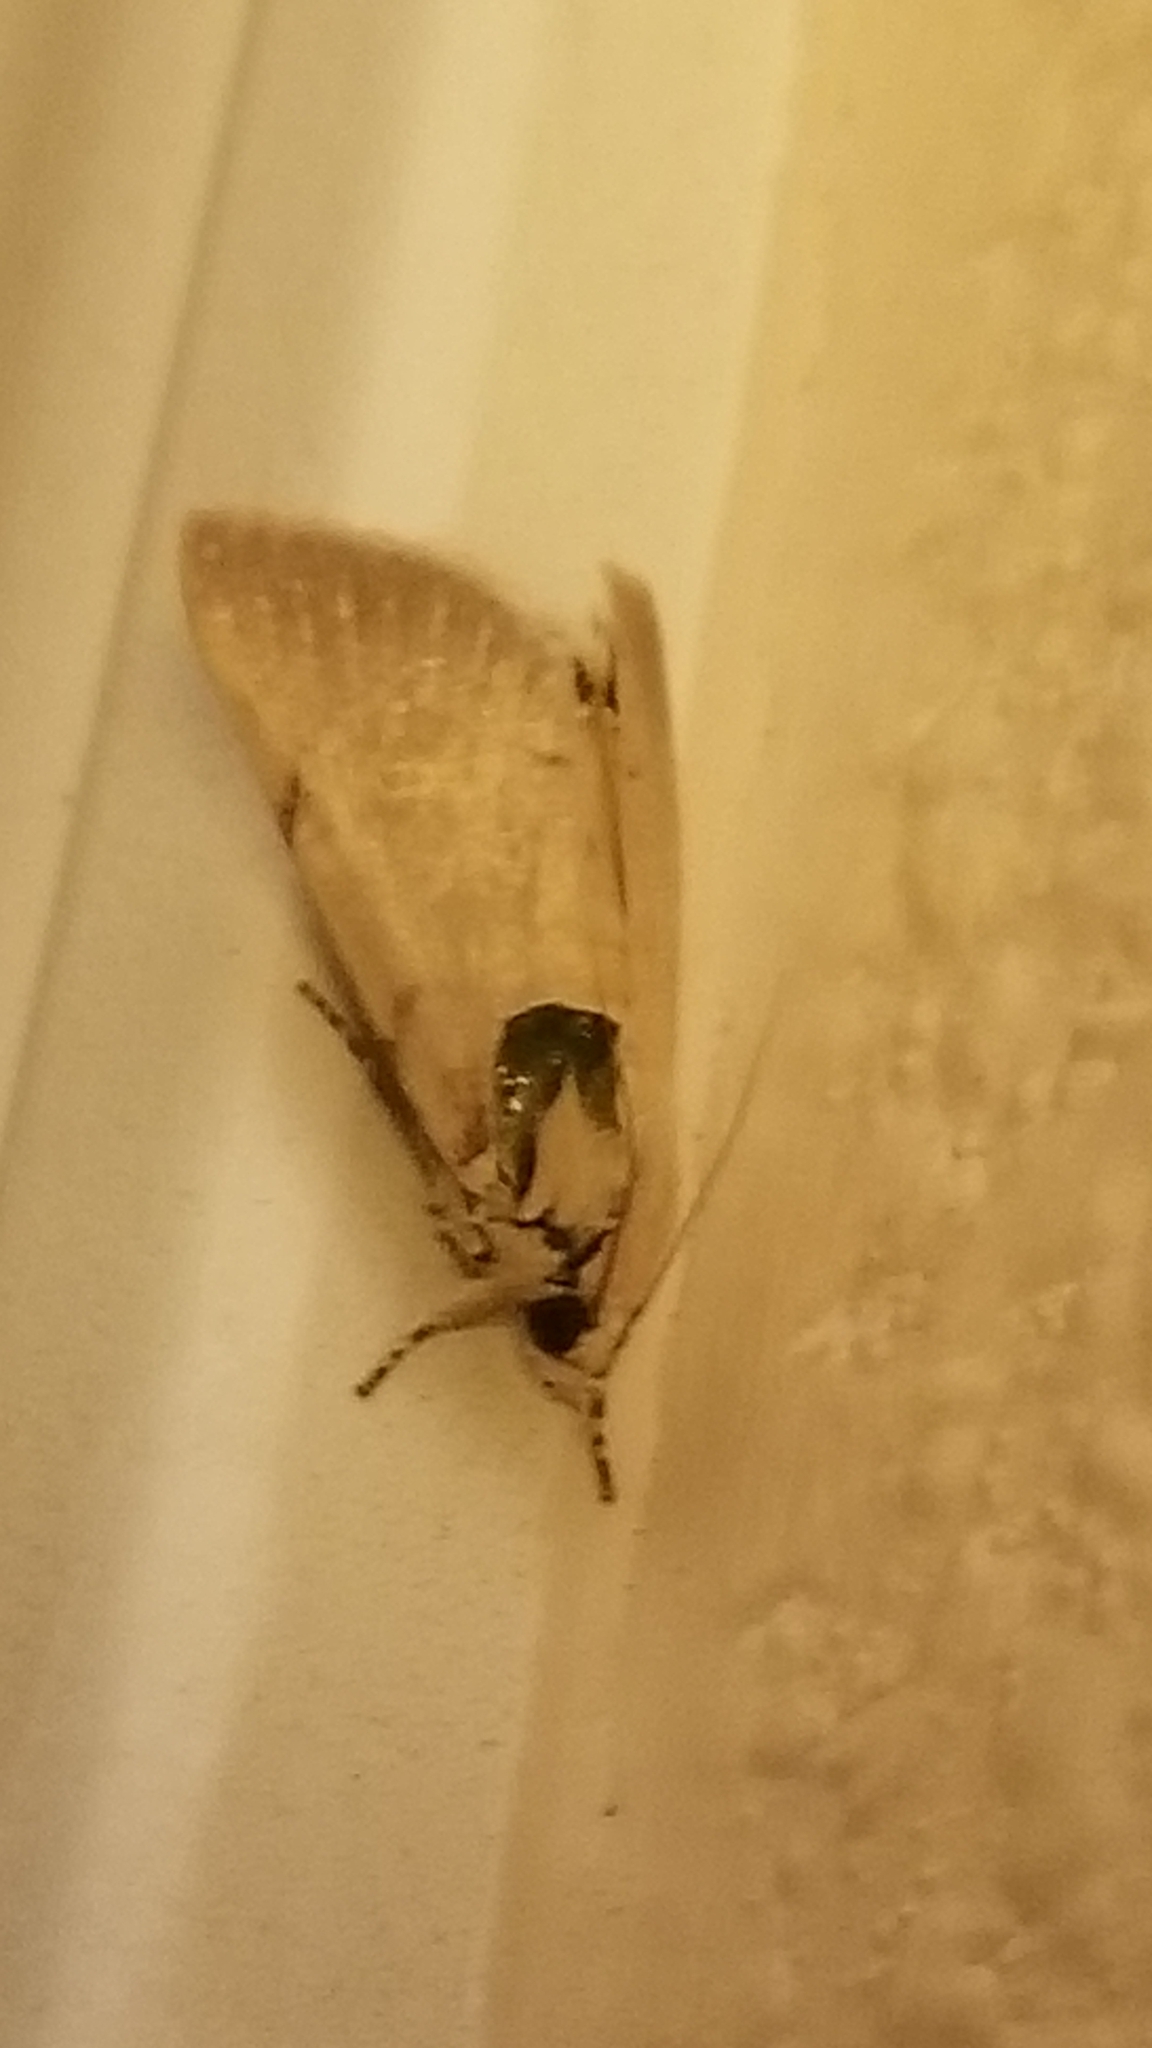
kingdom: Animalia
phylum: Arthropoda
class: Insecta
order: Lepidoptera
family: Erebidae
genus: Litoprosopus
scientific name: Litoprosopus coachella
